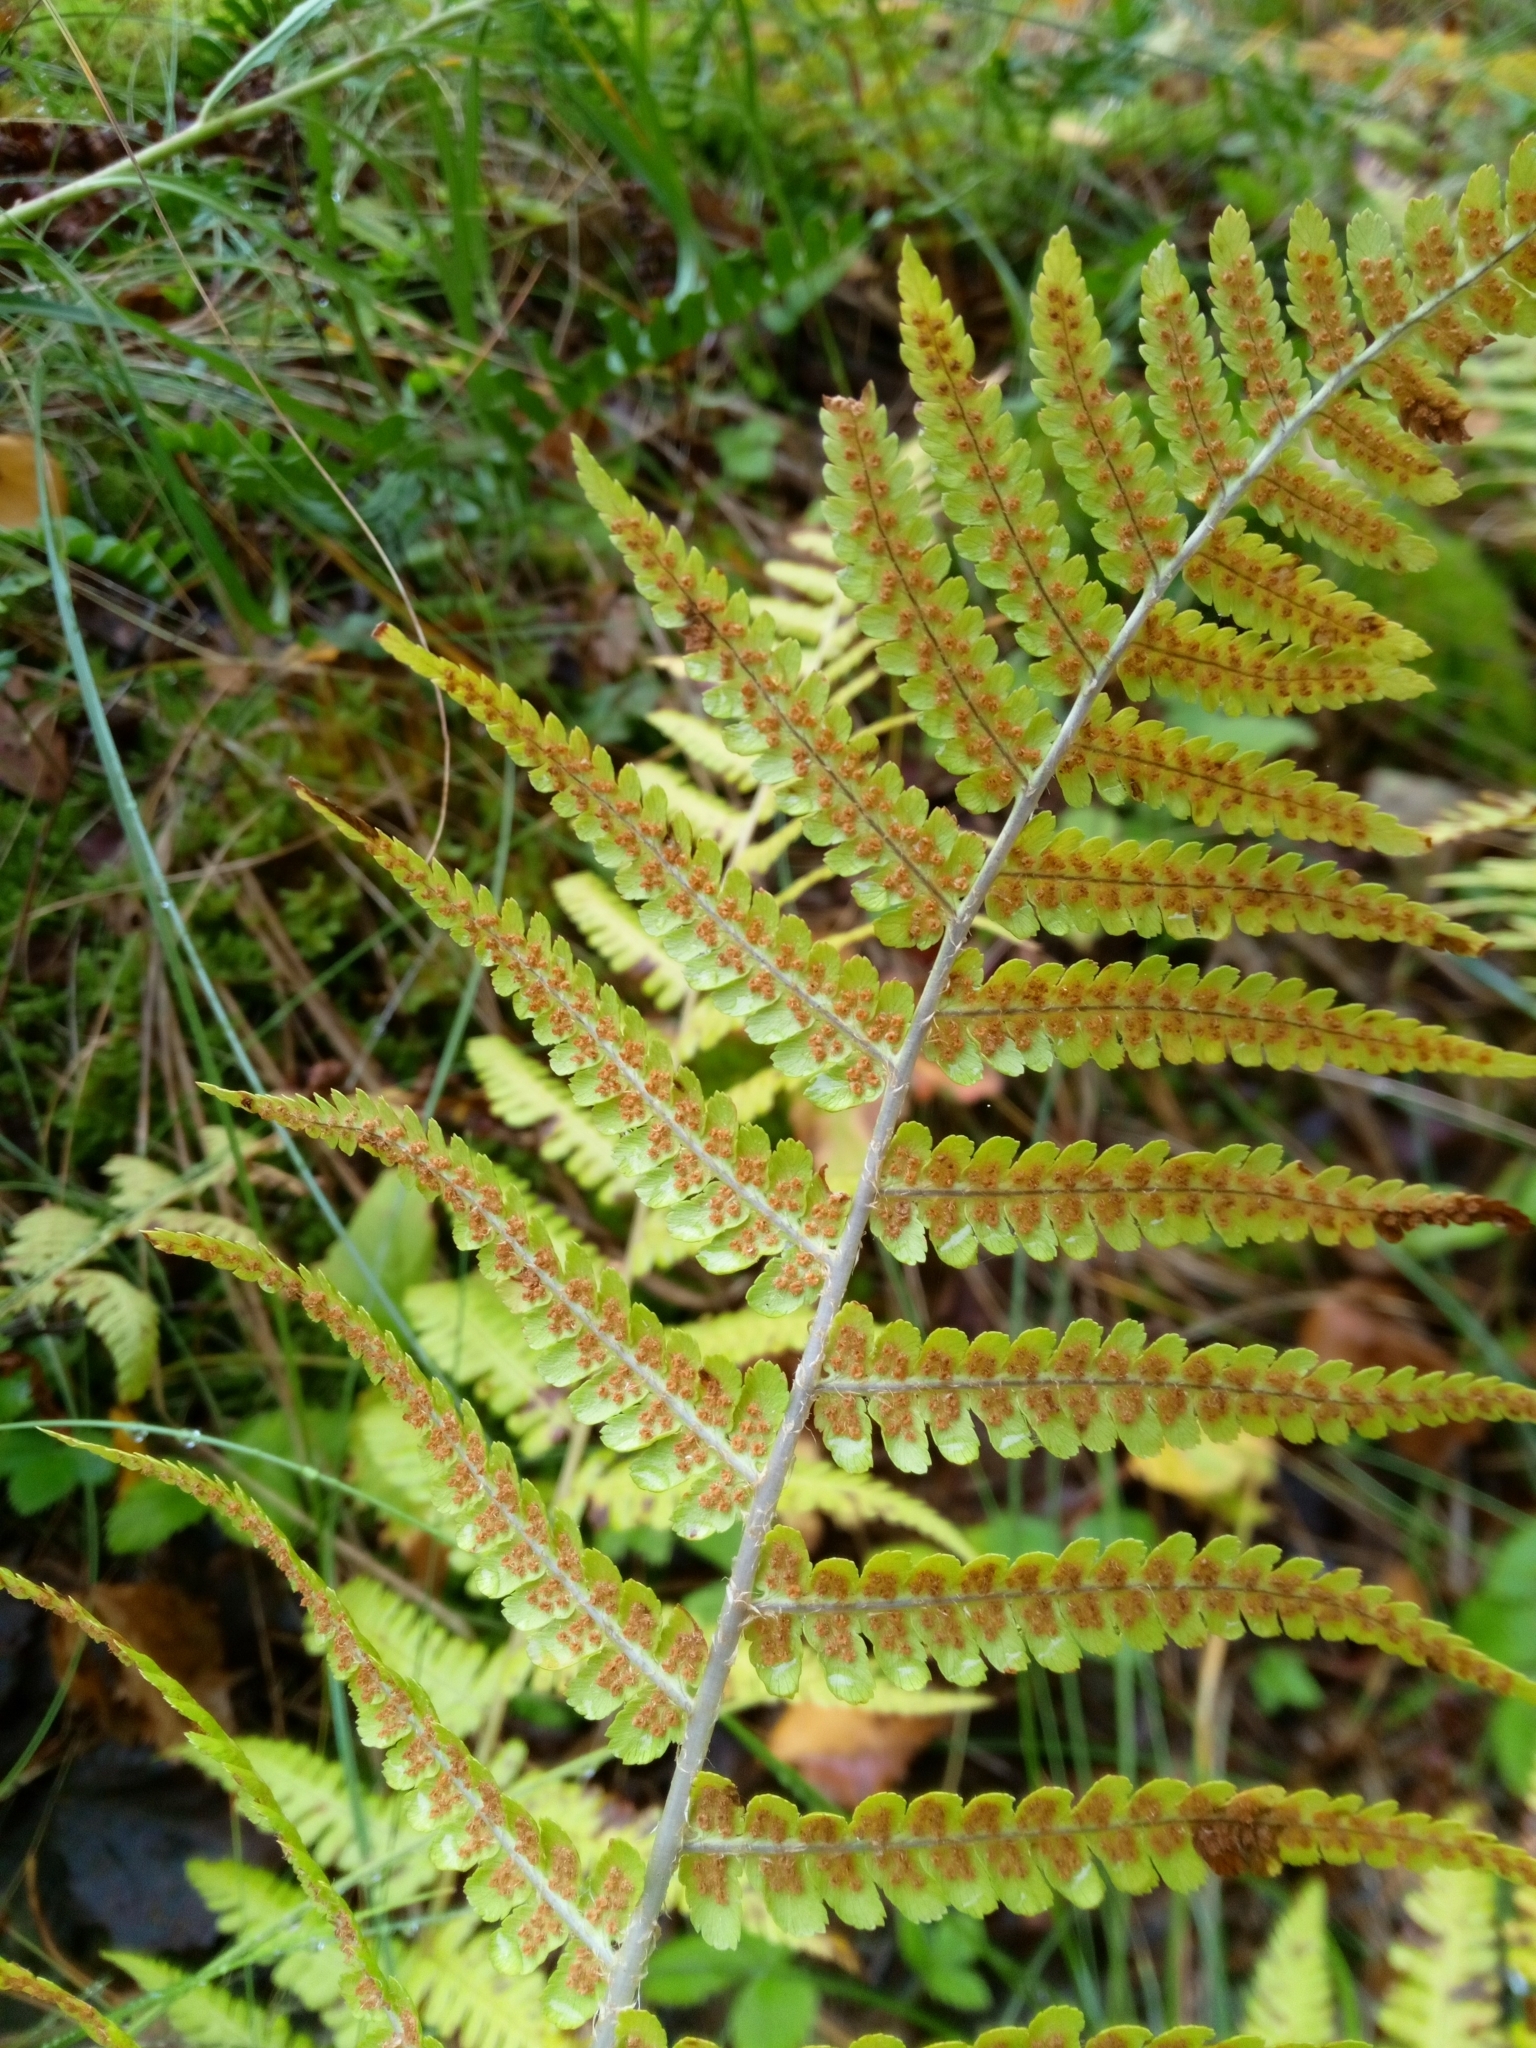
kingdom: Plantae
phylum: Tracheophyta
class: Polypodiopsida
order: Polypodiales
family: Dryopteridaceae
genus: Dryopteris
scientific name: Dryopteris filix-mas
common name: Male fern
